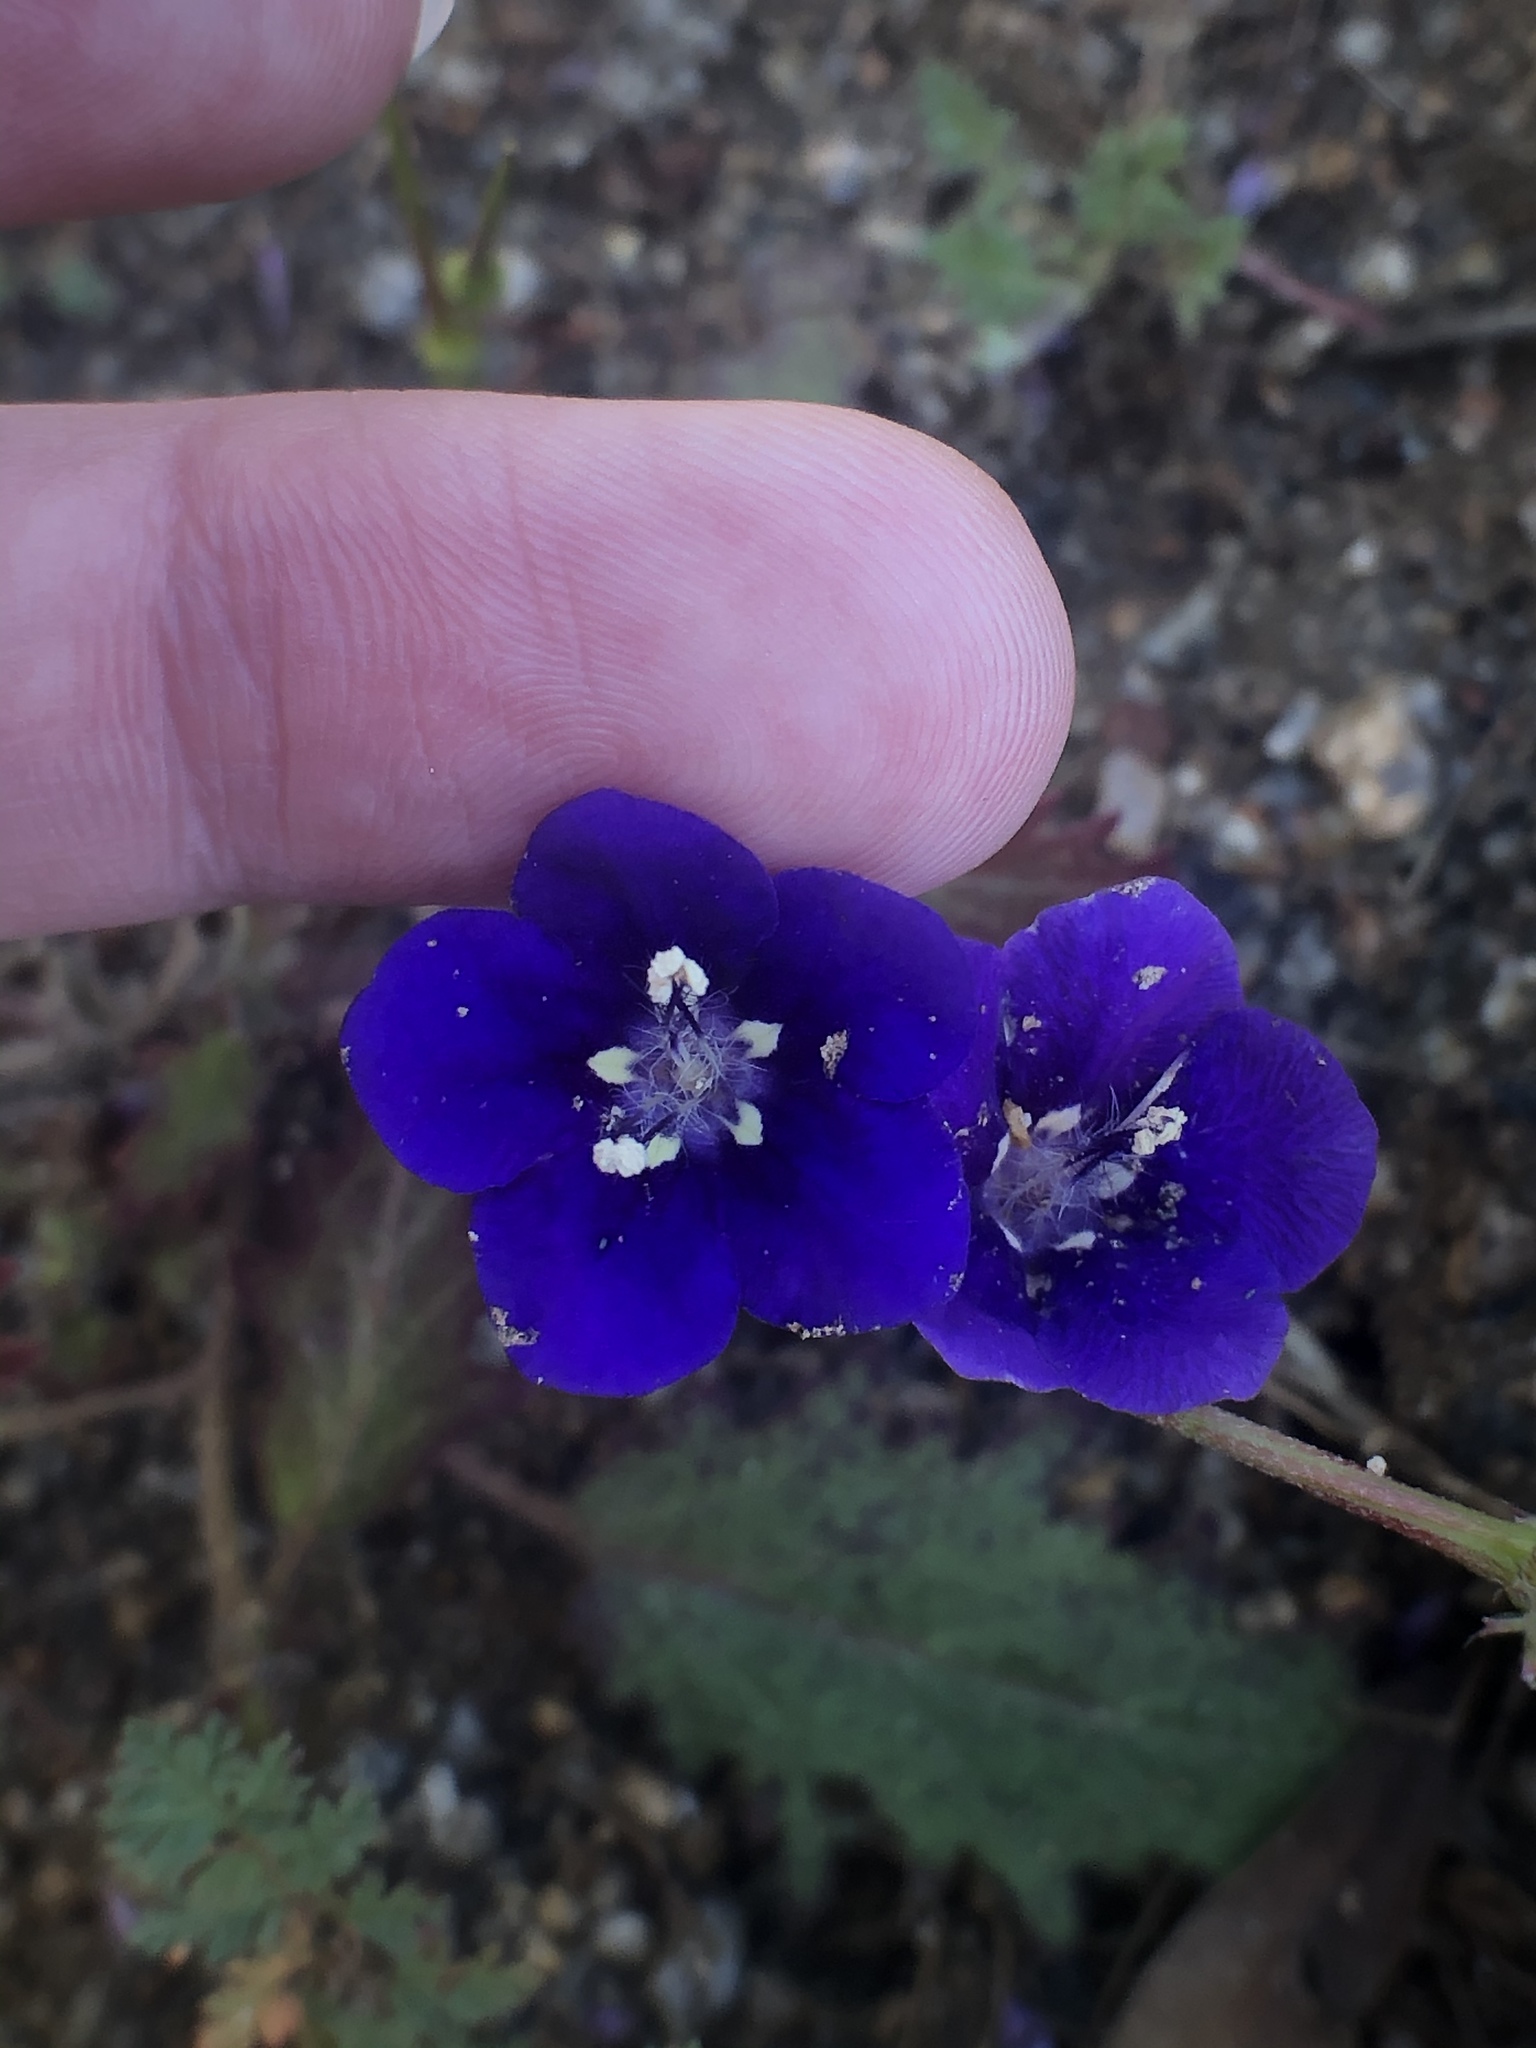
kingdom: Plantae
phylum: Tracheophyta
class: Magnoliopsida
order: Boraginales
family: Hydrophyllaceae
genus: Phacelia
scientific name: Phacelia parryi
